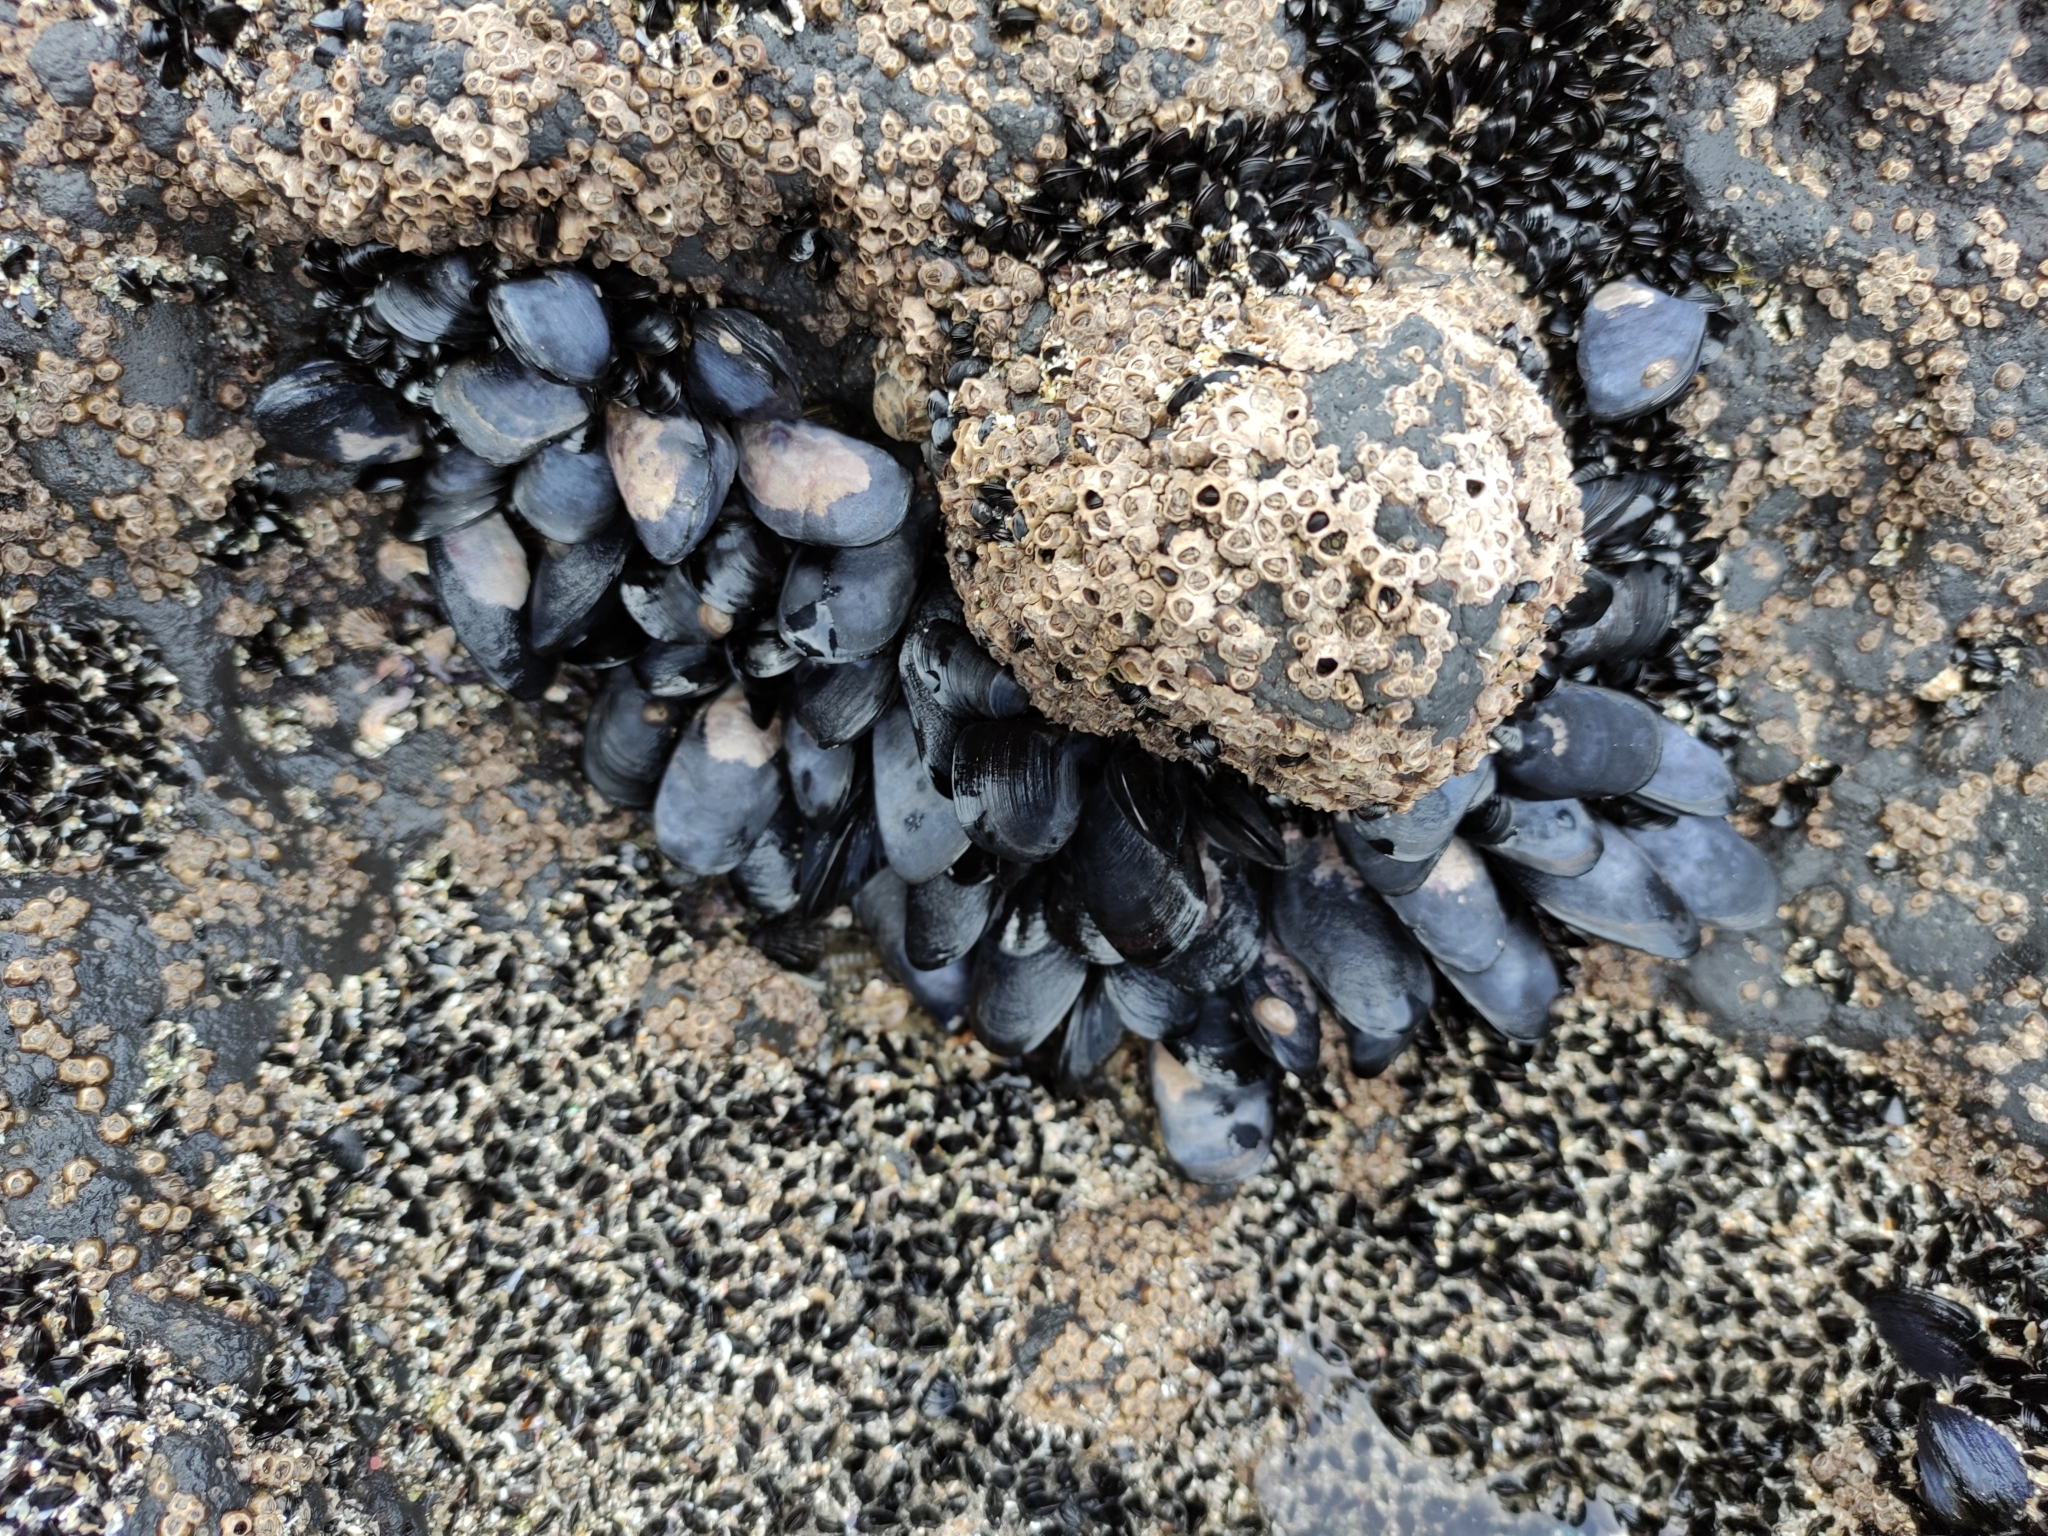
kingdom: Animalia
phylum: Mollusca
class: Bivalvia
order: Mytilida
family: Mytilidae
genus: Mytilus
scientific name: Mytilus planulatus
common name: Australian mussel
